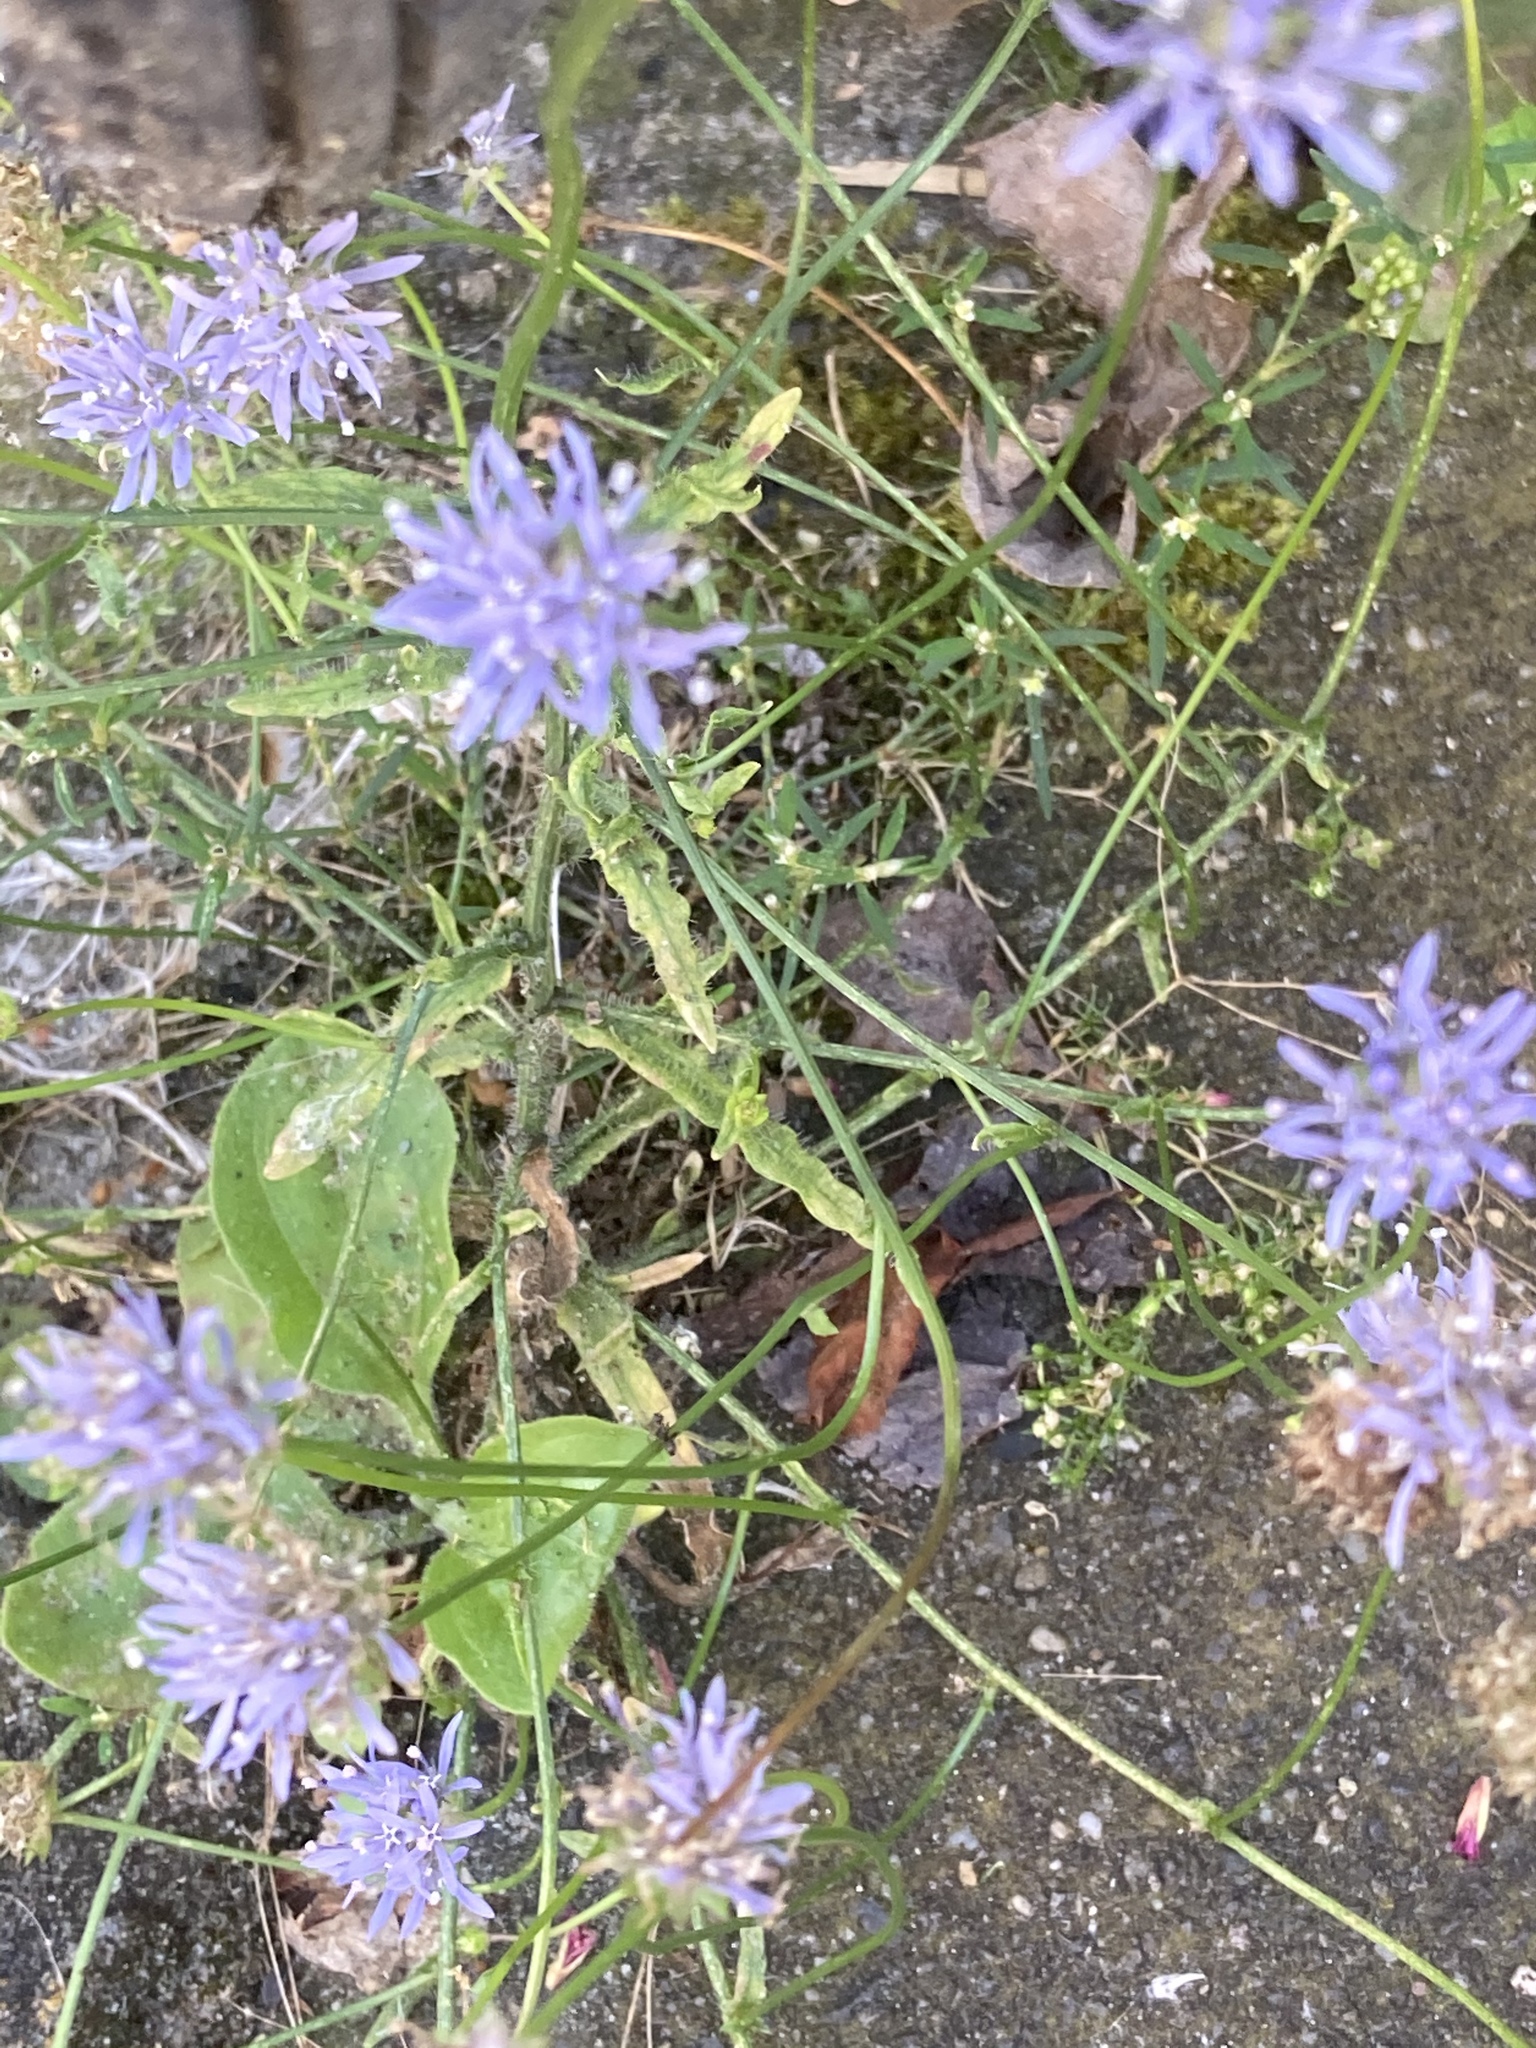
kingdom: Plantae
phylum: Tracheophyta
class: Magnoliopsida
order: Asterales
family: Campanulaceae
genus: Jasione
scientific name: Jasione montana
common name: Sheep's-bit
